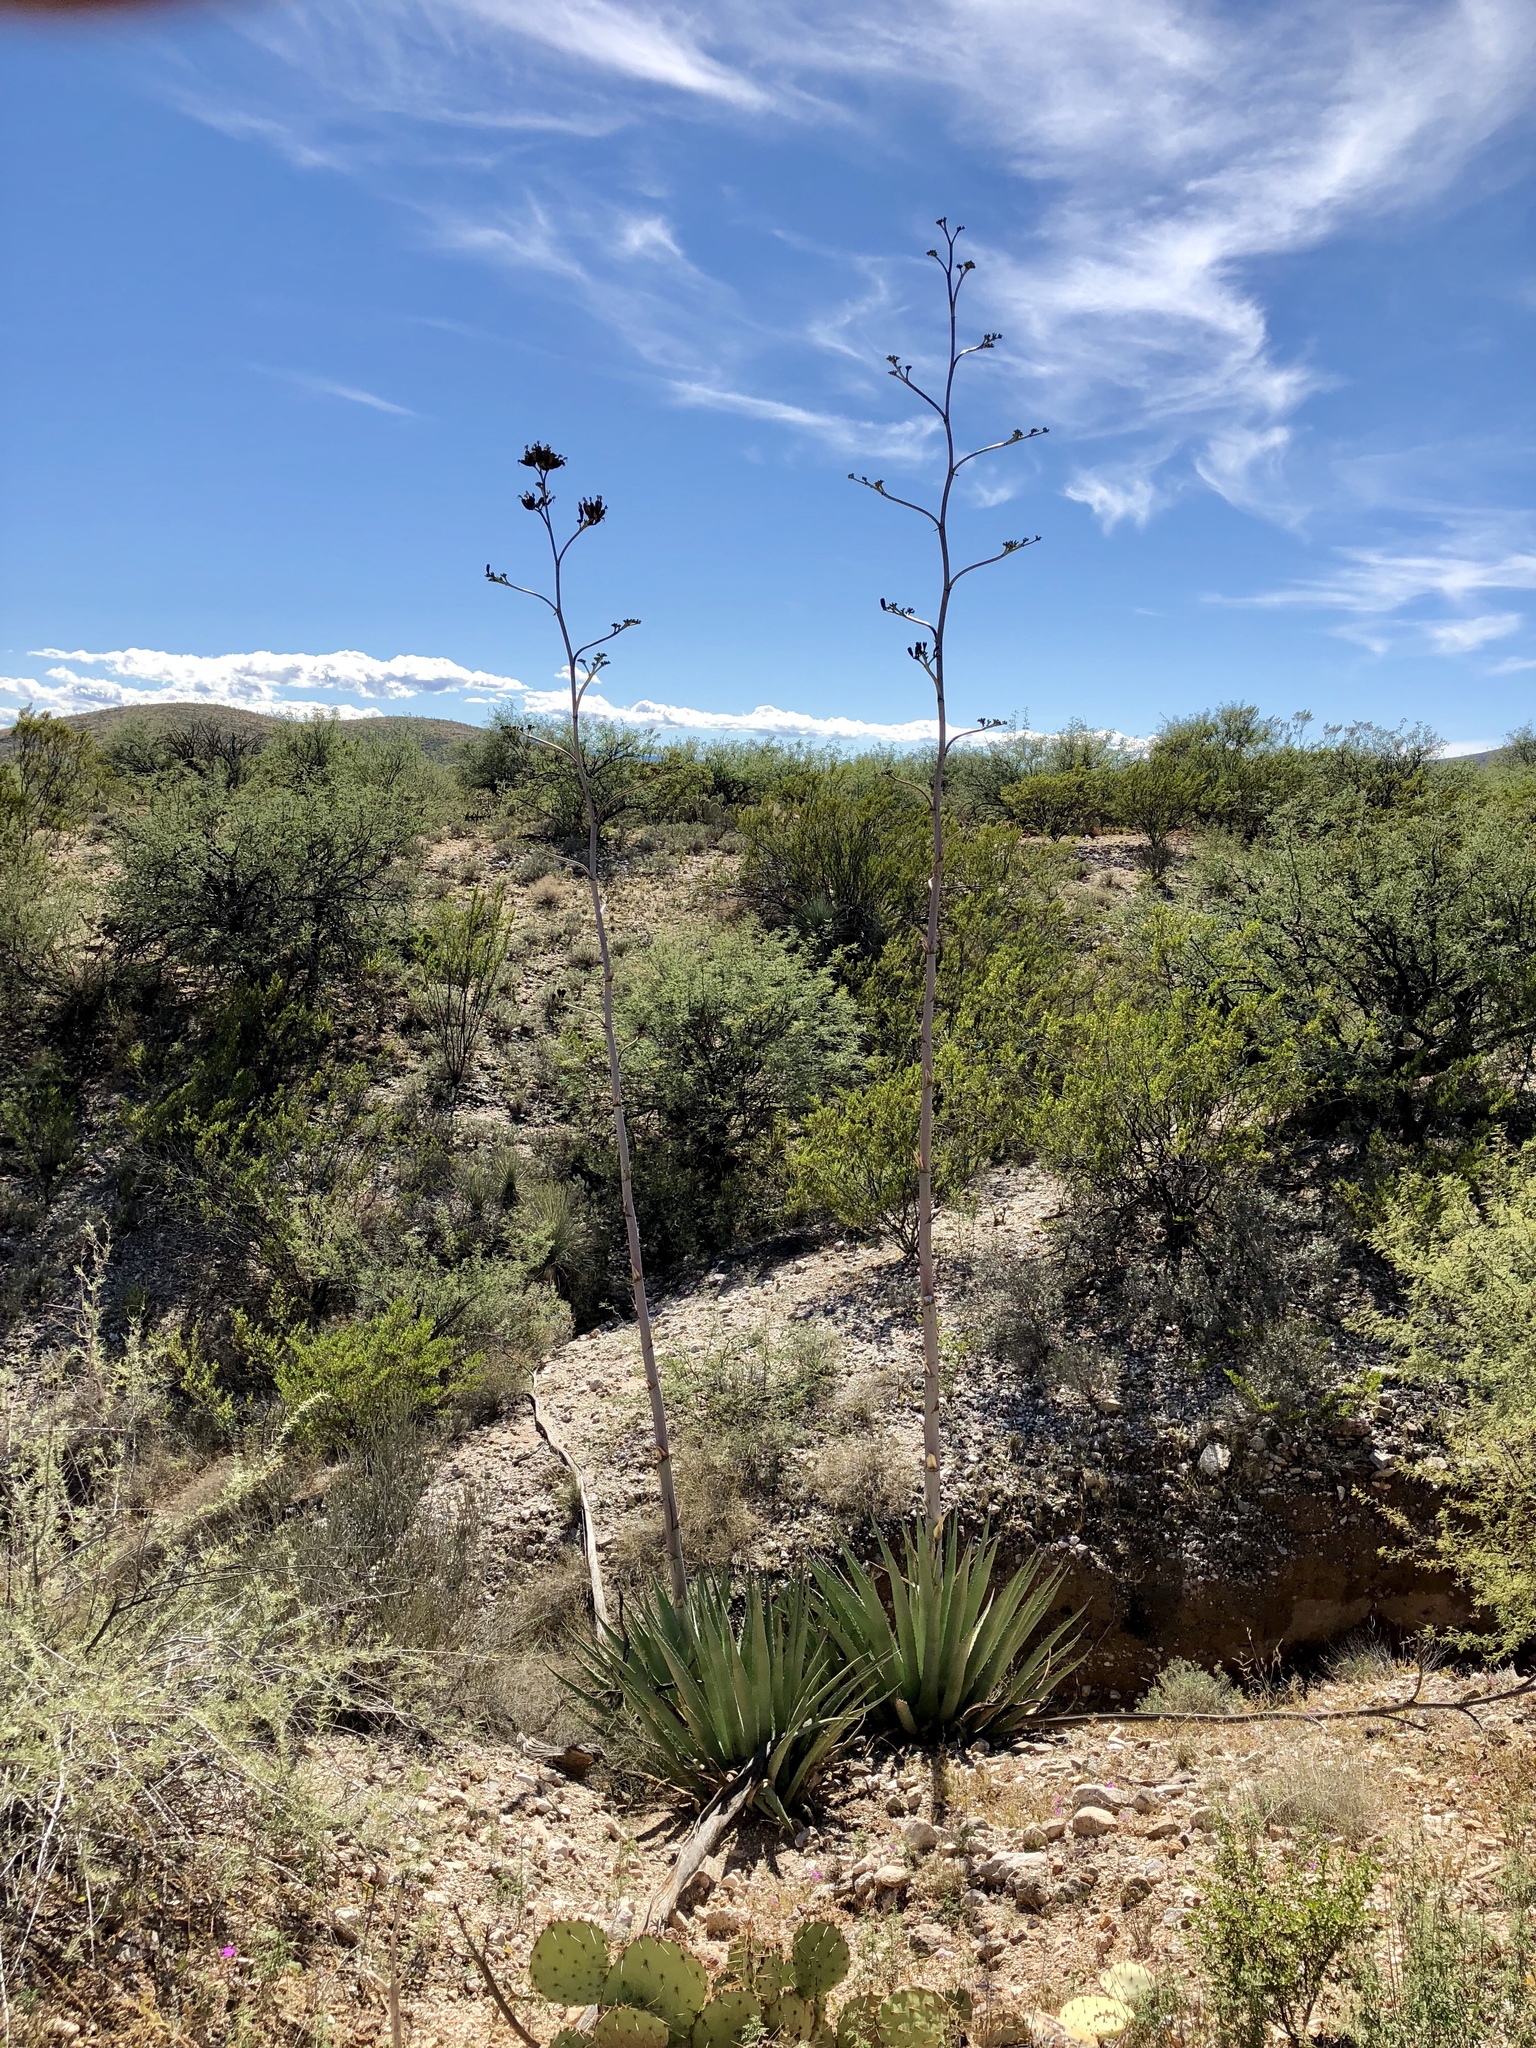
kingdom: Plantae
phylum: Tracheophyta
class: Liliopsida
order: Asparagales
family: Asparagaceae
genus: Agave
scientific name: Agave palmeri
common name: Palmer agave
